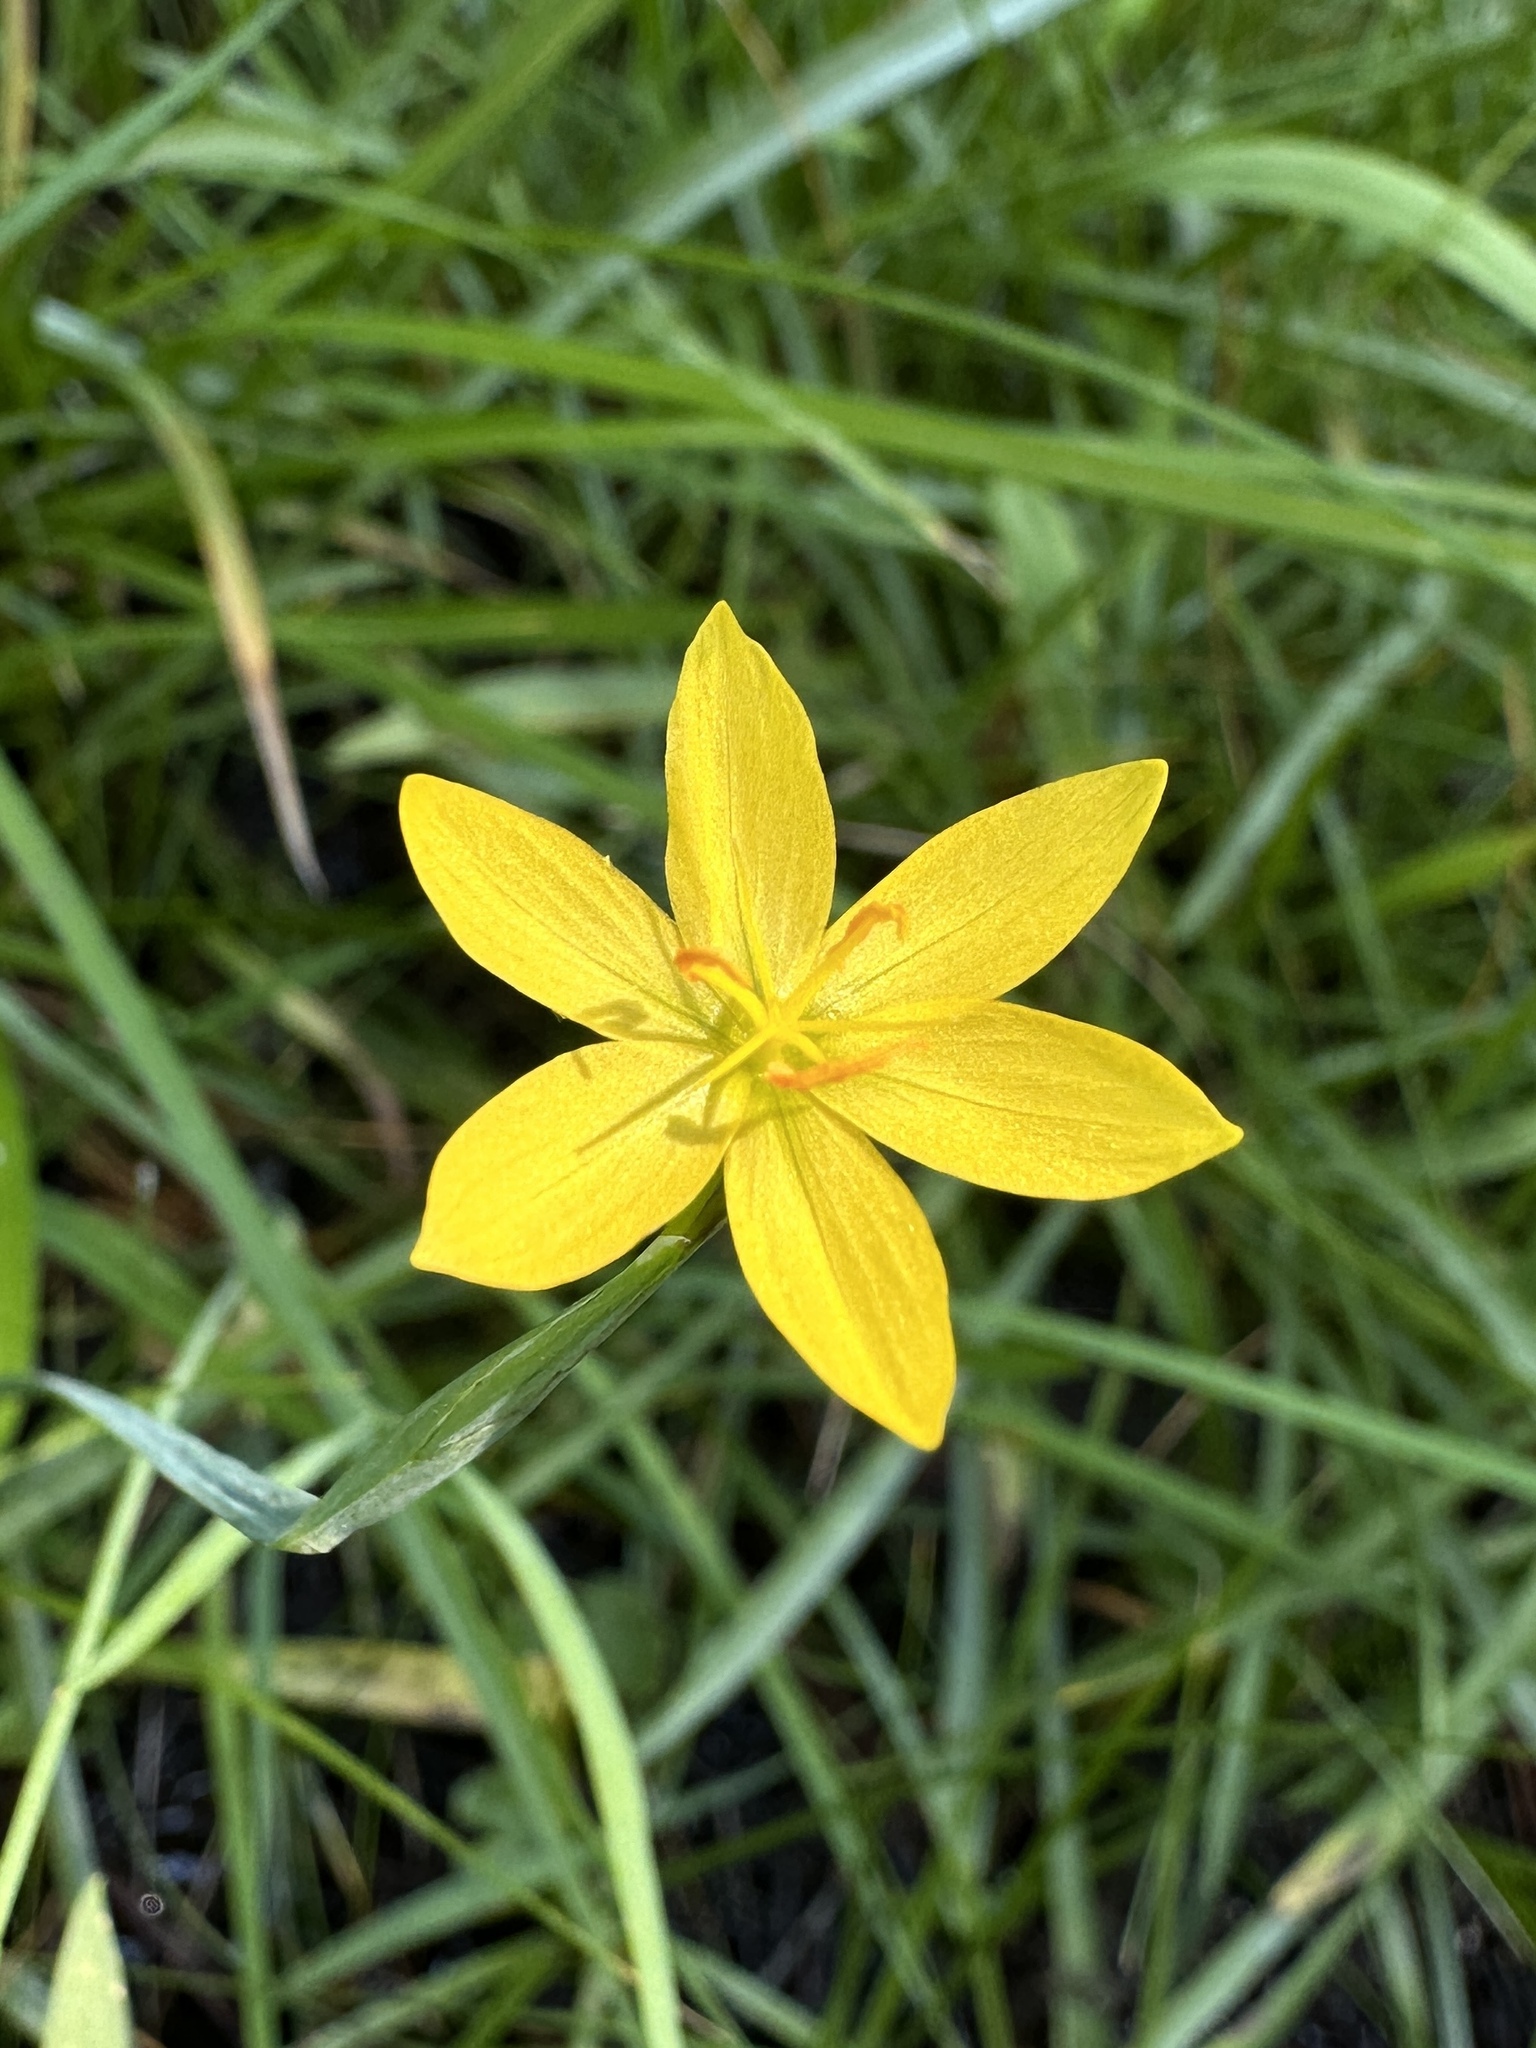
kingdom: Plantae
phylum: Tracheophyta
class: Liliopsida
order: Asparagales
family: Iridaceae
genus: Sisyrinchium
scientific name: Sisyrinchium elmeri
